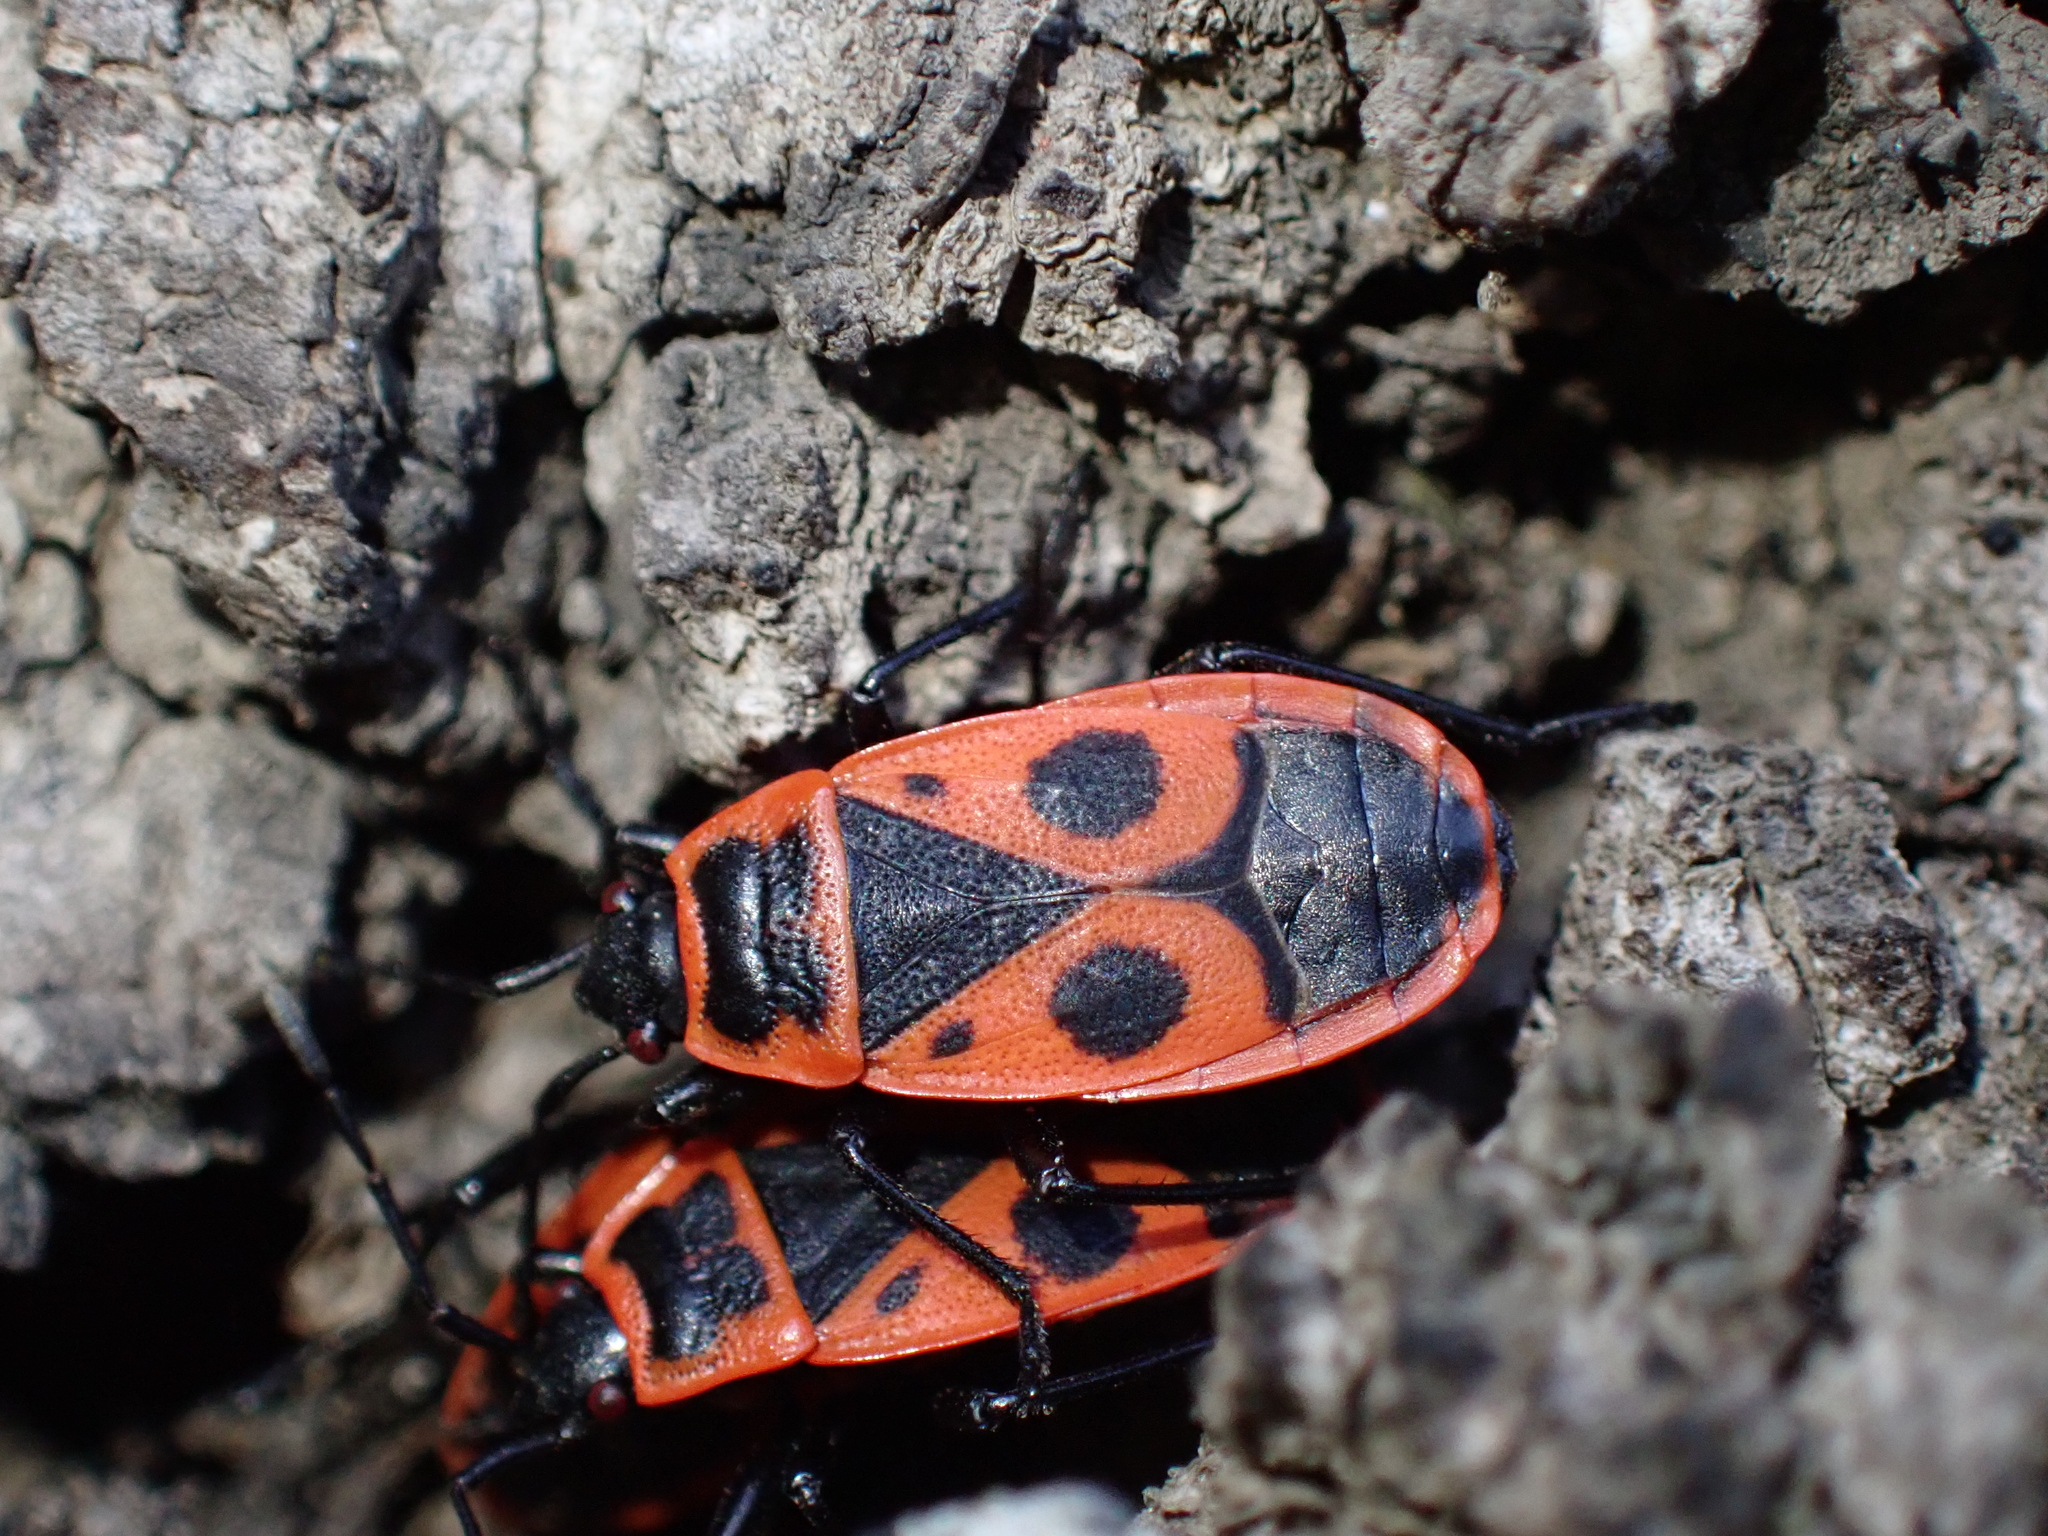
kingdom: Animalia
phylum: Arthropoda
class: Insecta
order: Hemiptera
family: Pyrrhocoridae
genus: Pyrrhocoris
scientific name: Pyrrhocoris apterus
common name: Firebug
